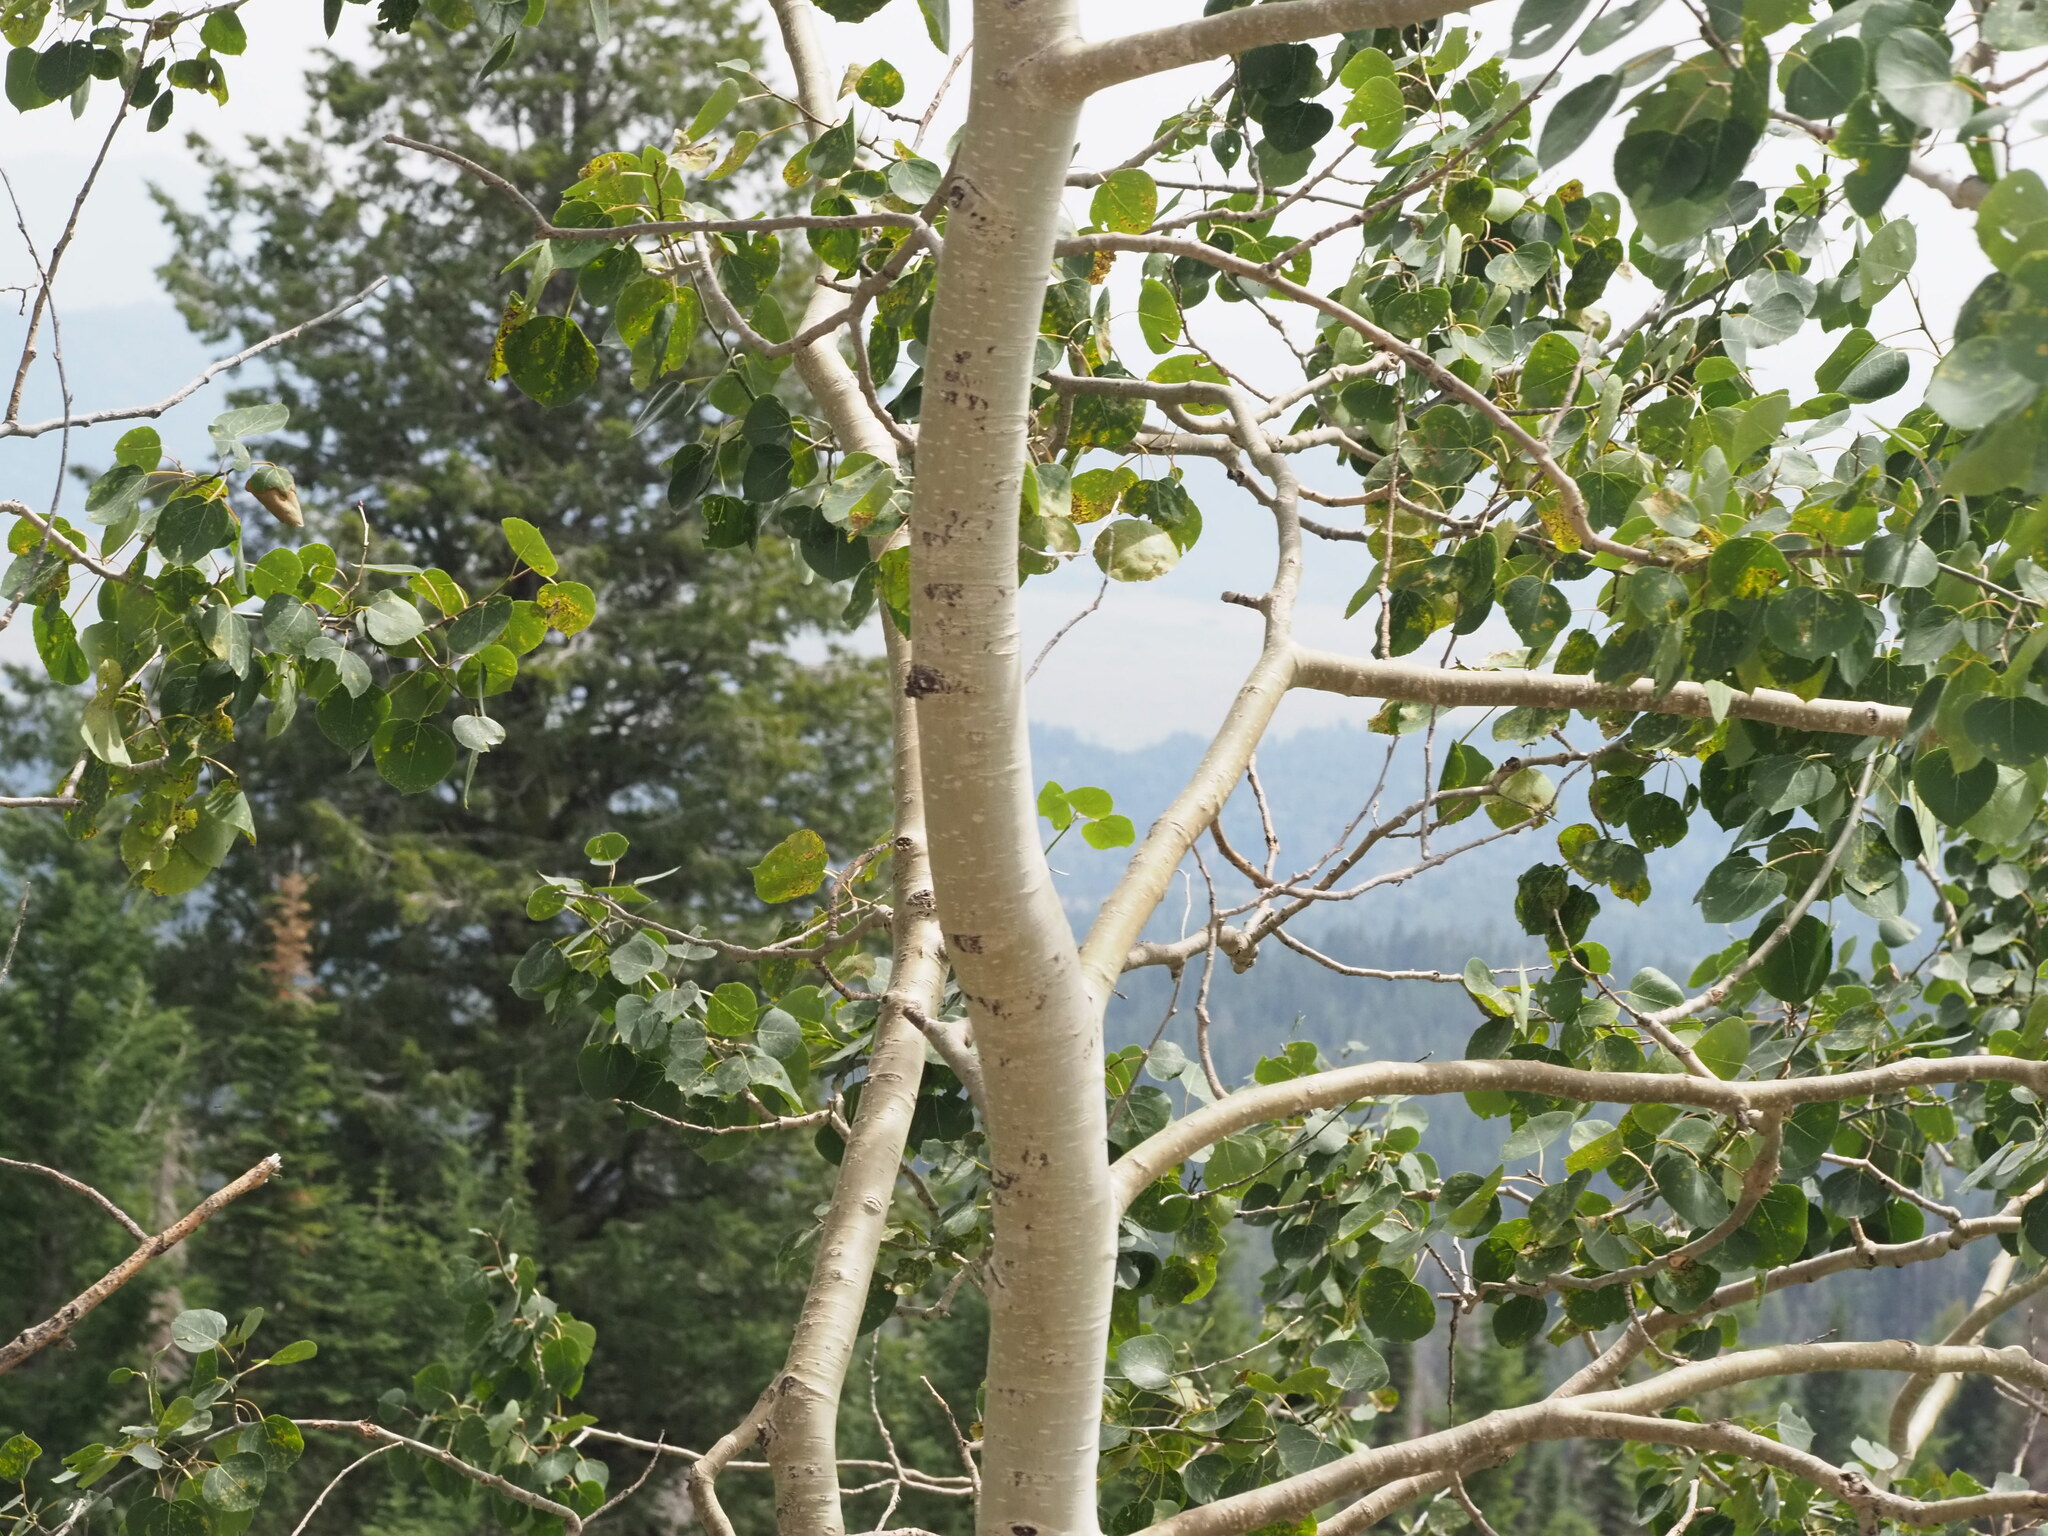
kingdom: Plantae
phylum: Tracheophyta
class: Magnoliopsida
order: Malpighiales
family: Salicaceae
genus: Populus
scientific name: Populus tremuloides
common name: Quaking aspen
